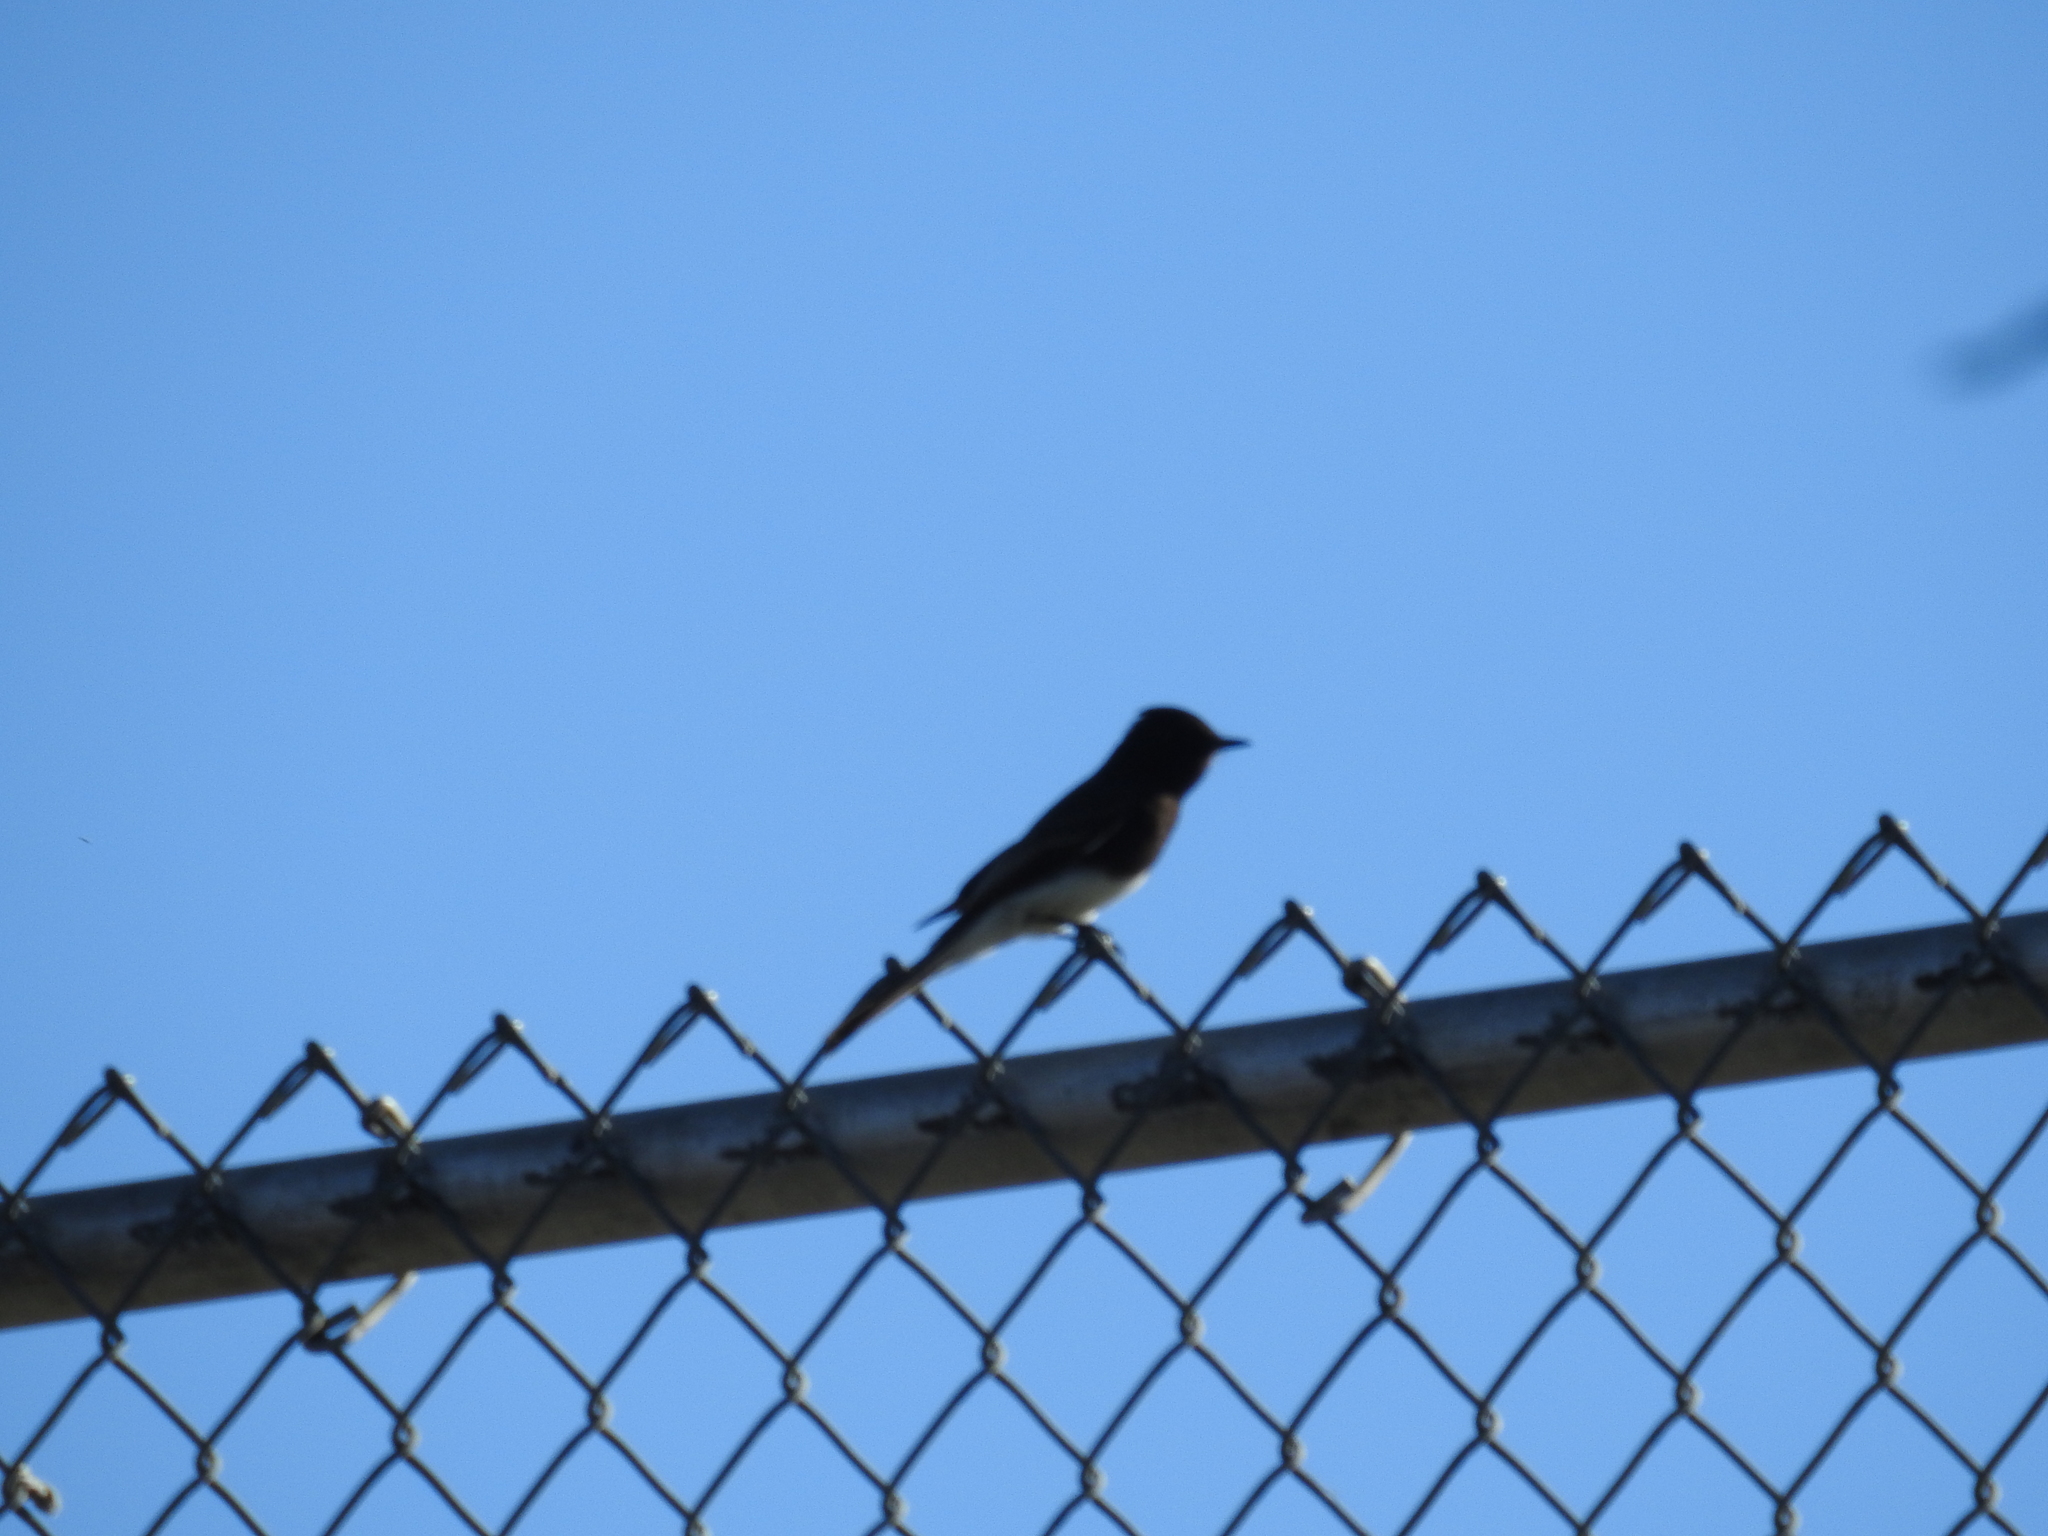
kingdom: Animalia
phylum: Chordata
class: Aves
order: Passeriformes
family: Tyrannidae
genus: Sayornis
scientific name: Sayornis nigricans
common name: Black phoebe
